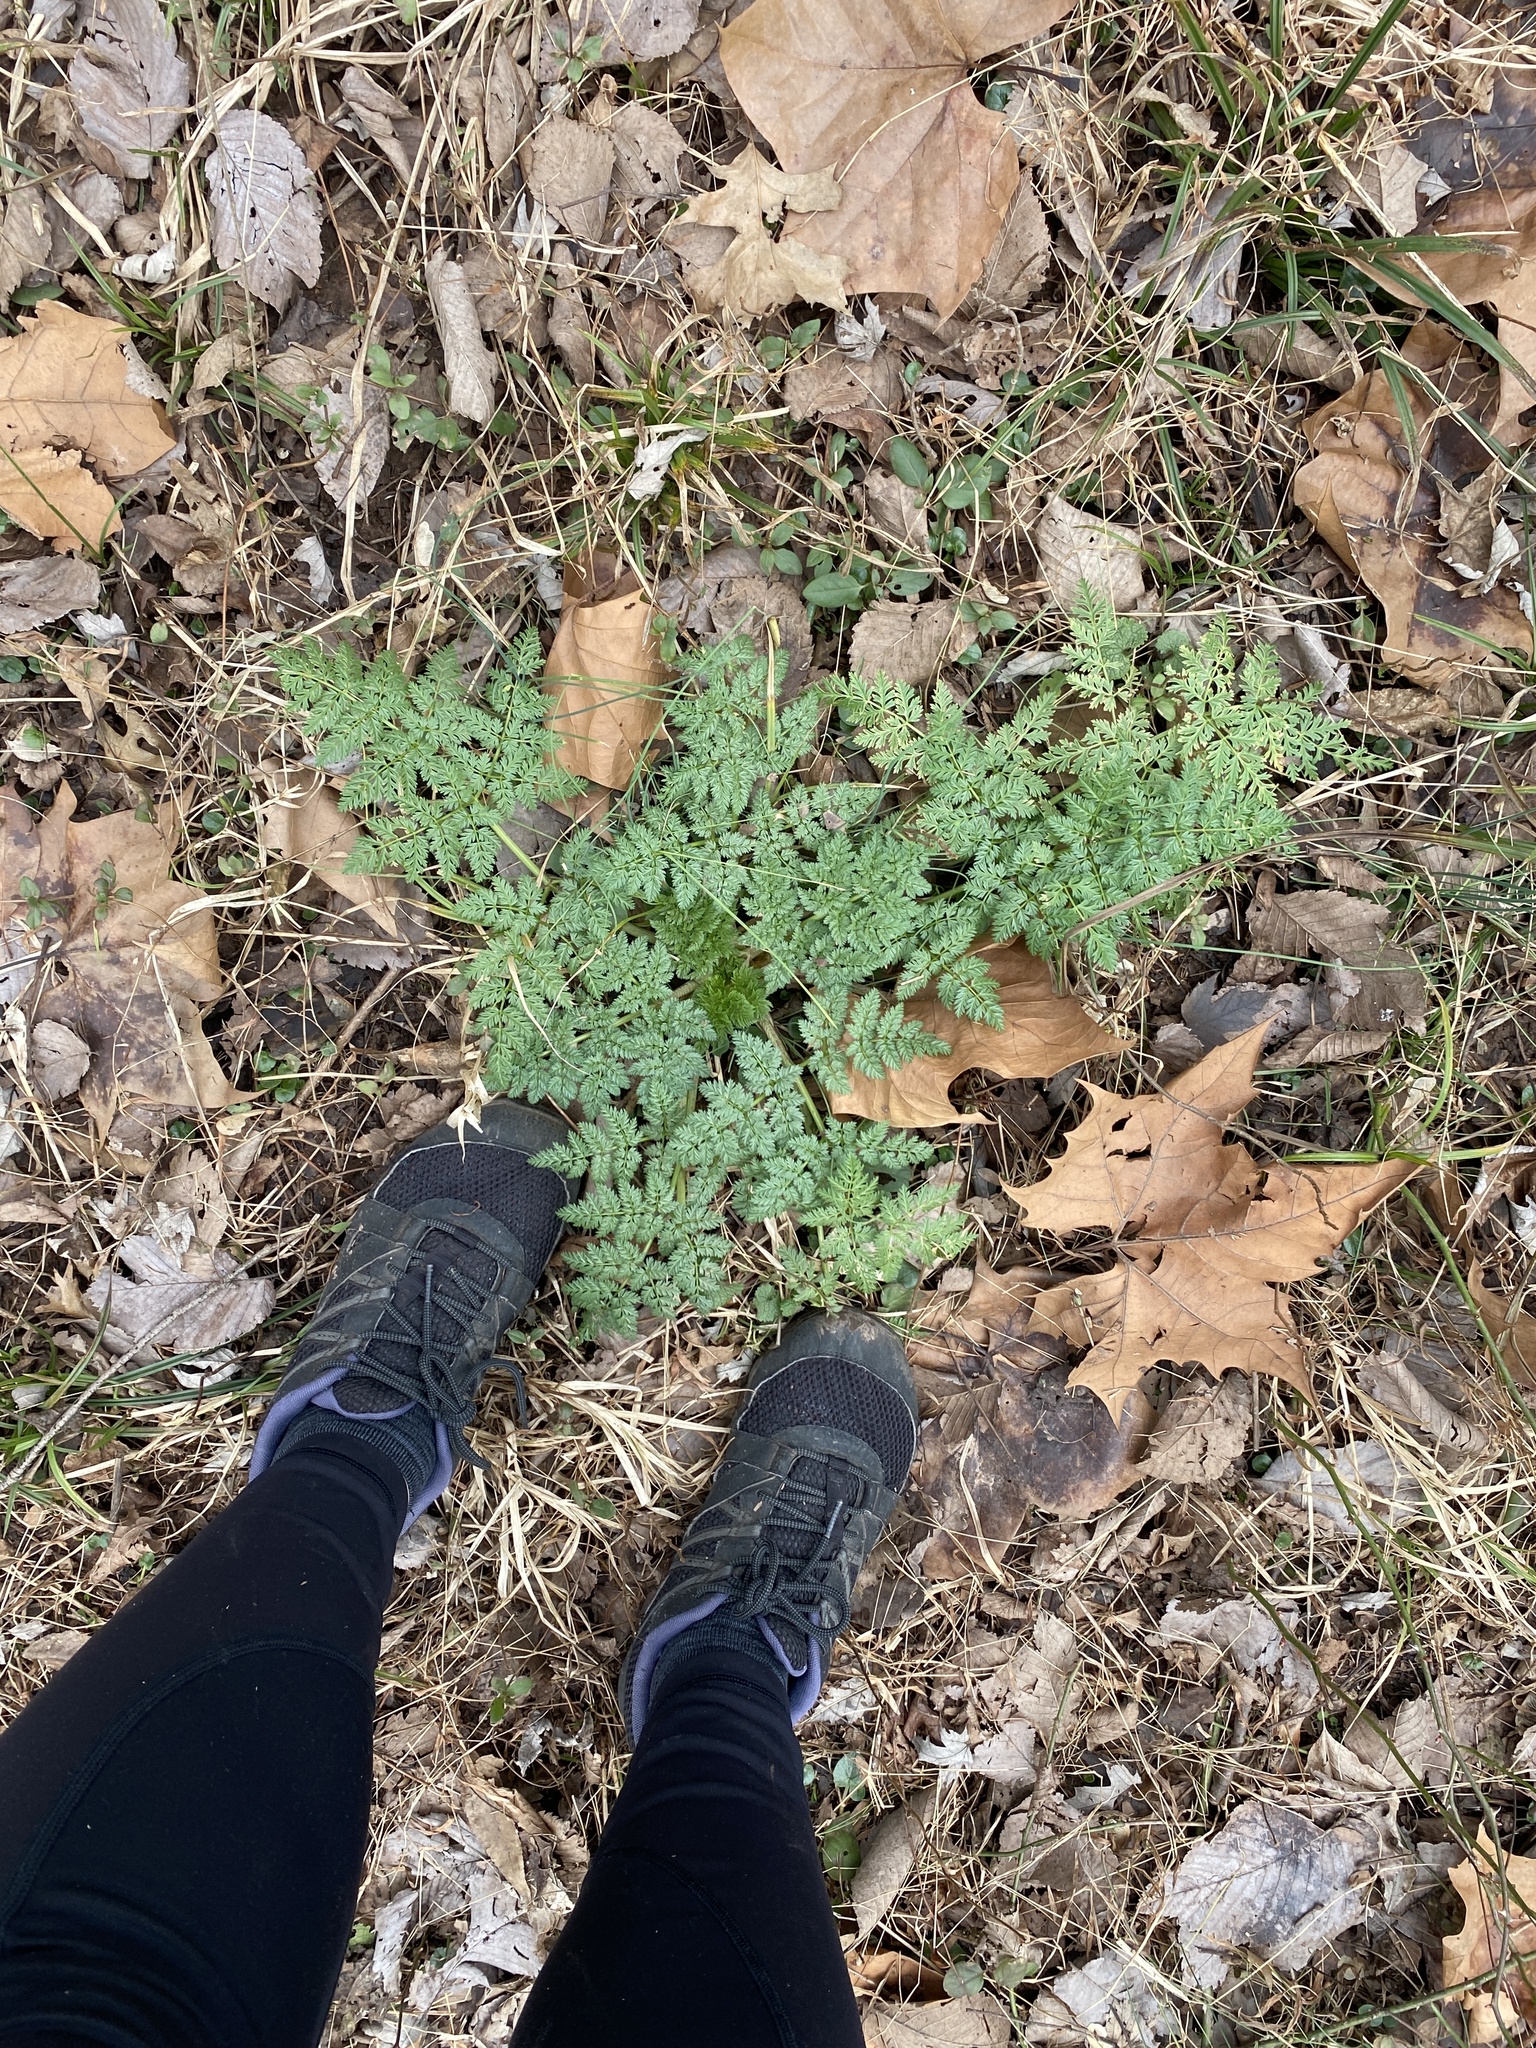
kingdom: Plantae
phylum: Tracheophyta
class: Magnoliopsida
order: Apiales
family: Apiaceae
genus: Conium
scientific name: Conium maculatum
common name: Hemlock
